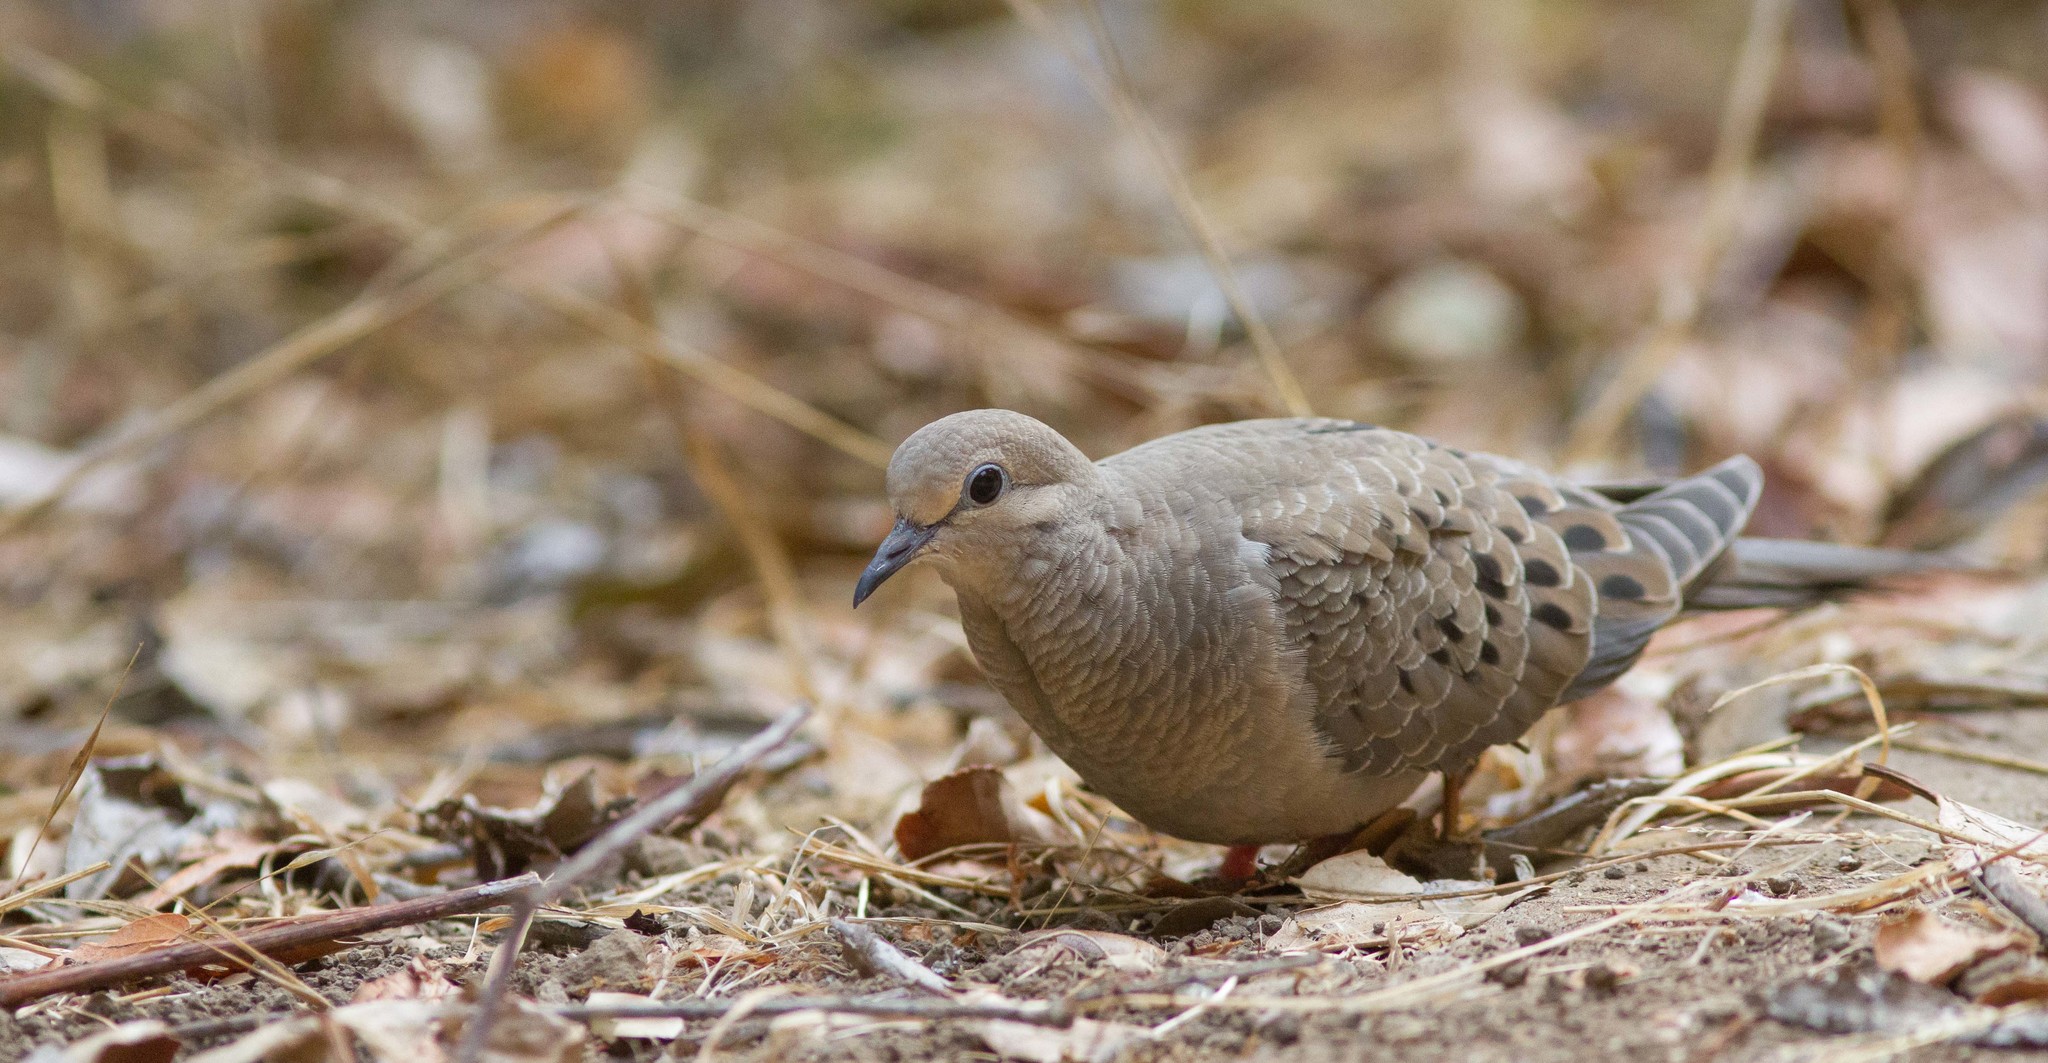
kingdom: Animalia
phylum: Chordata
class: Aves
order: Columbiformes
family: Columbidae
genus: Zenaida
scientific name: Zenaida macroura
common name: Mourning dove
